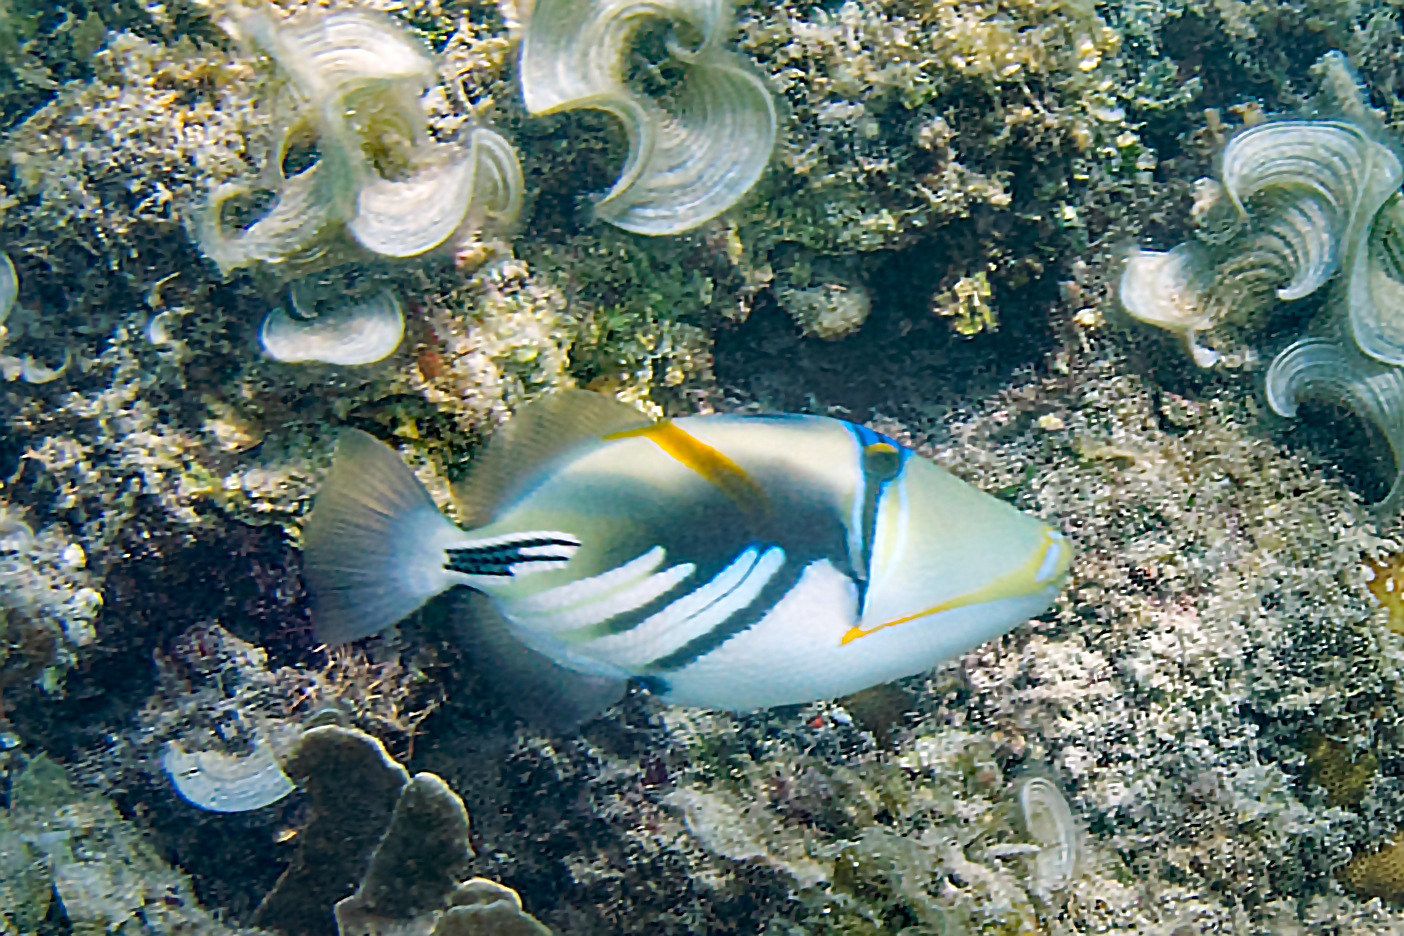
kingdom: Animalia
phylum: Chordata
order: Tetraodontiformes
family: Balistidae
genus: Rhinecanthus
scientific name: Rhinecanthus aculeatus
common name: White-banded triggerfish
